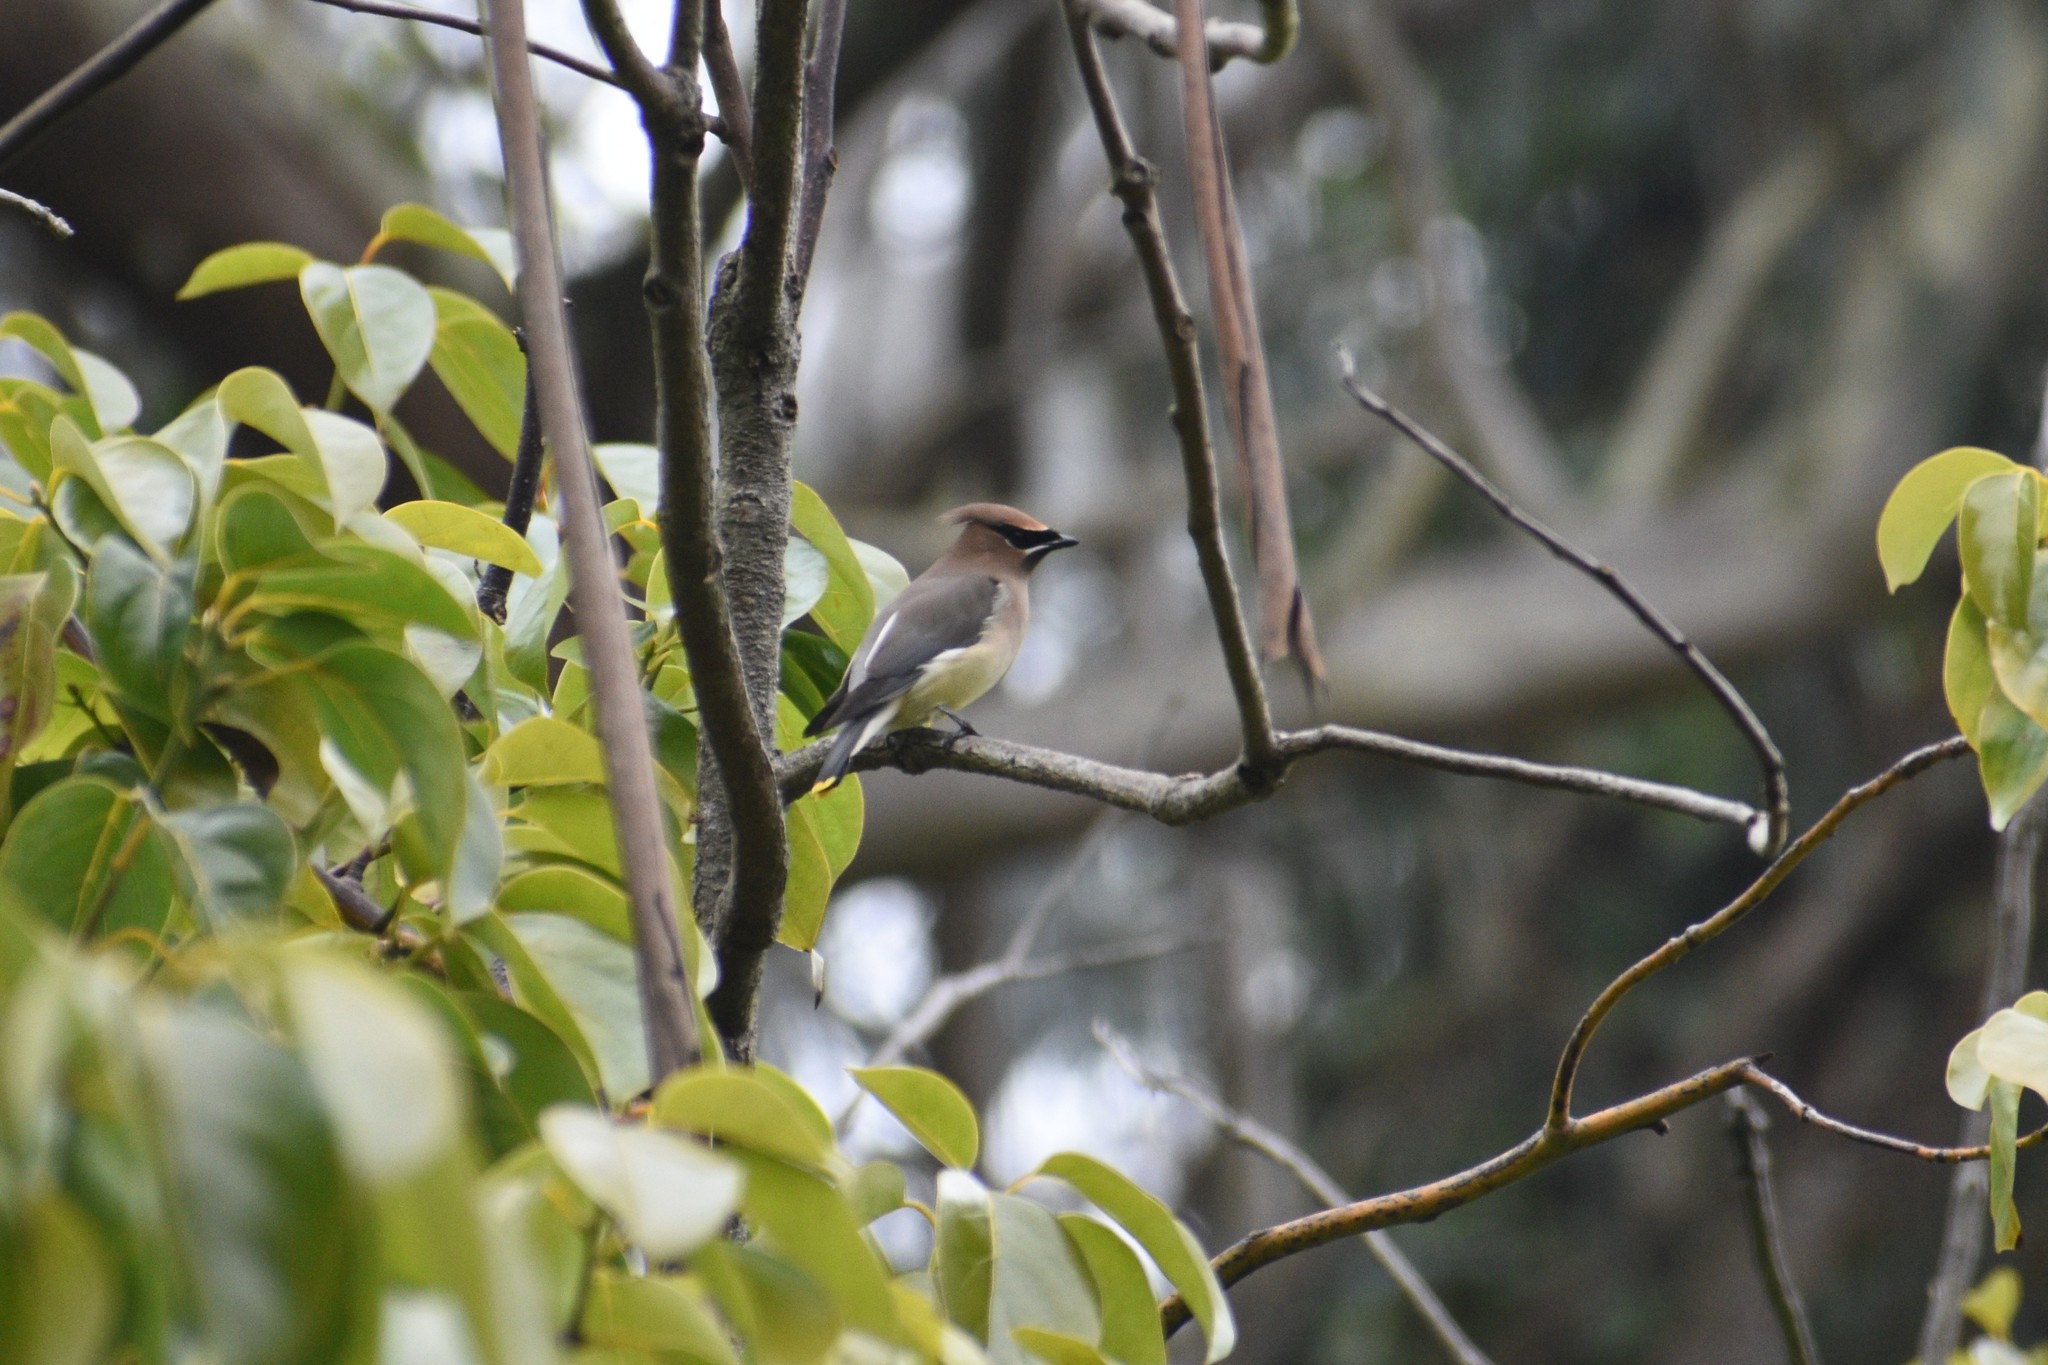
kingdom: Animalia
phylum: Chordata
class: Aves
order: Passeriformes
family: Bombycillidae
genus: Bombycilla
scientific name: Bombycilla cedrorum
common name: Cedar waxwing
